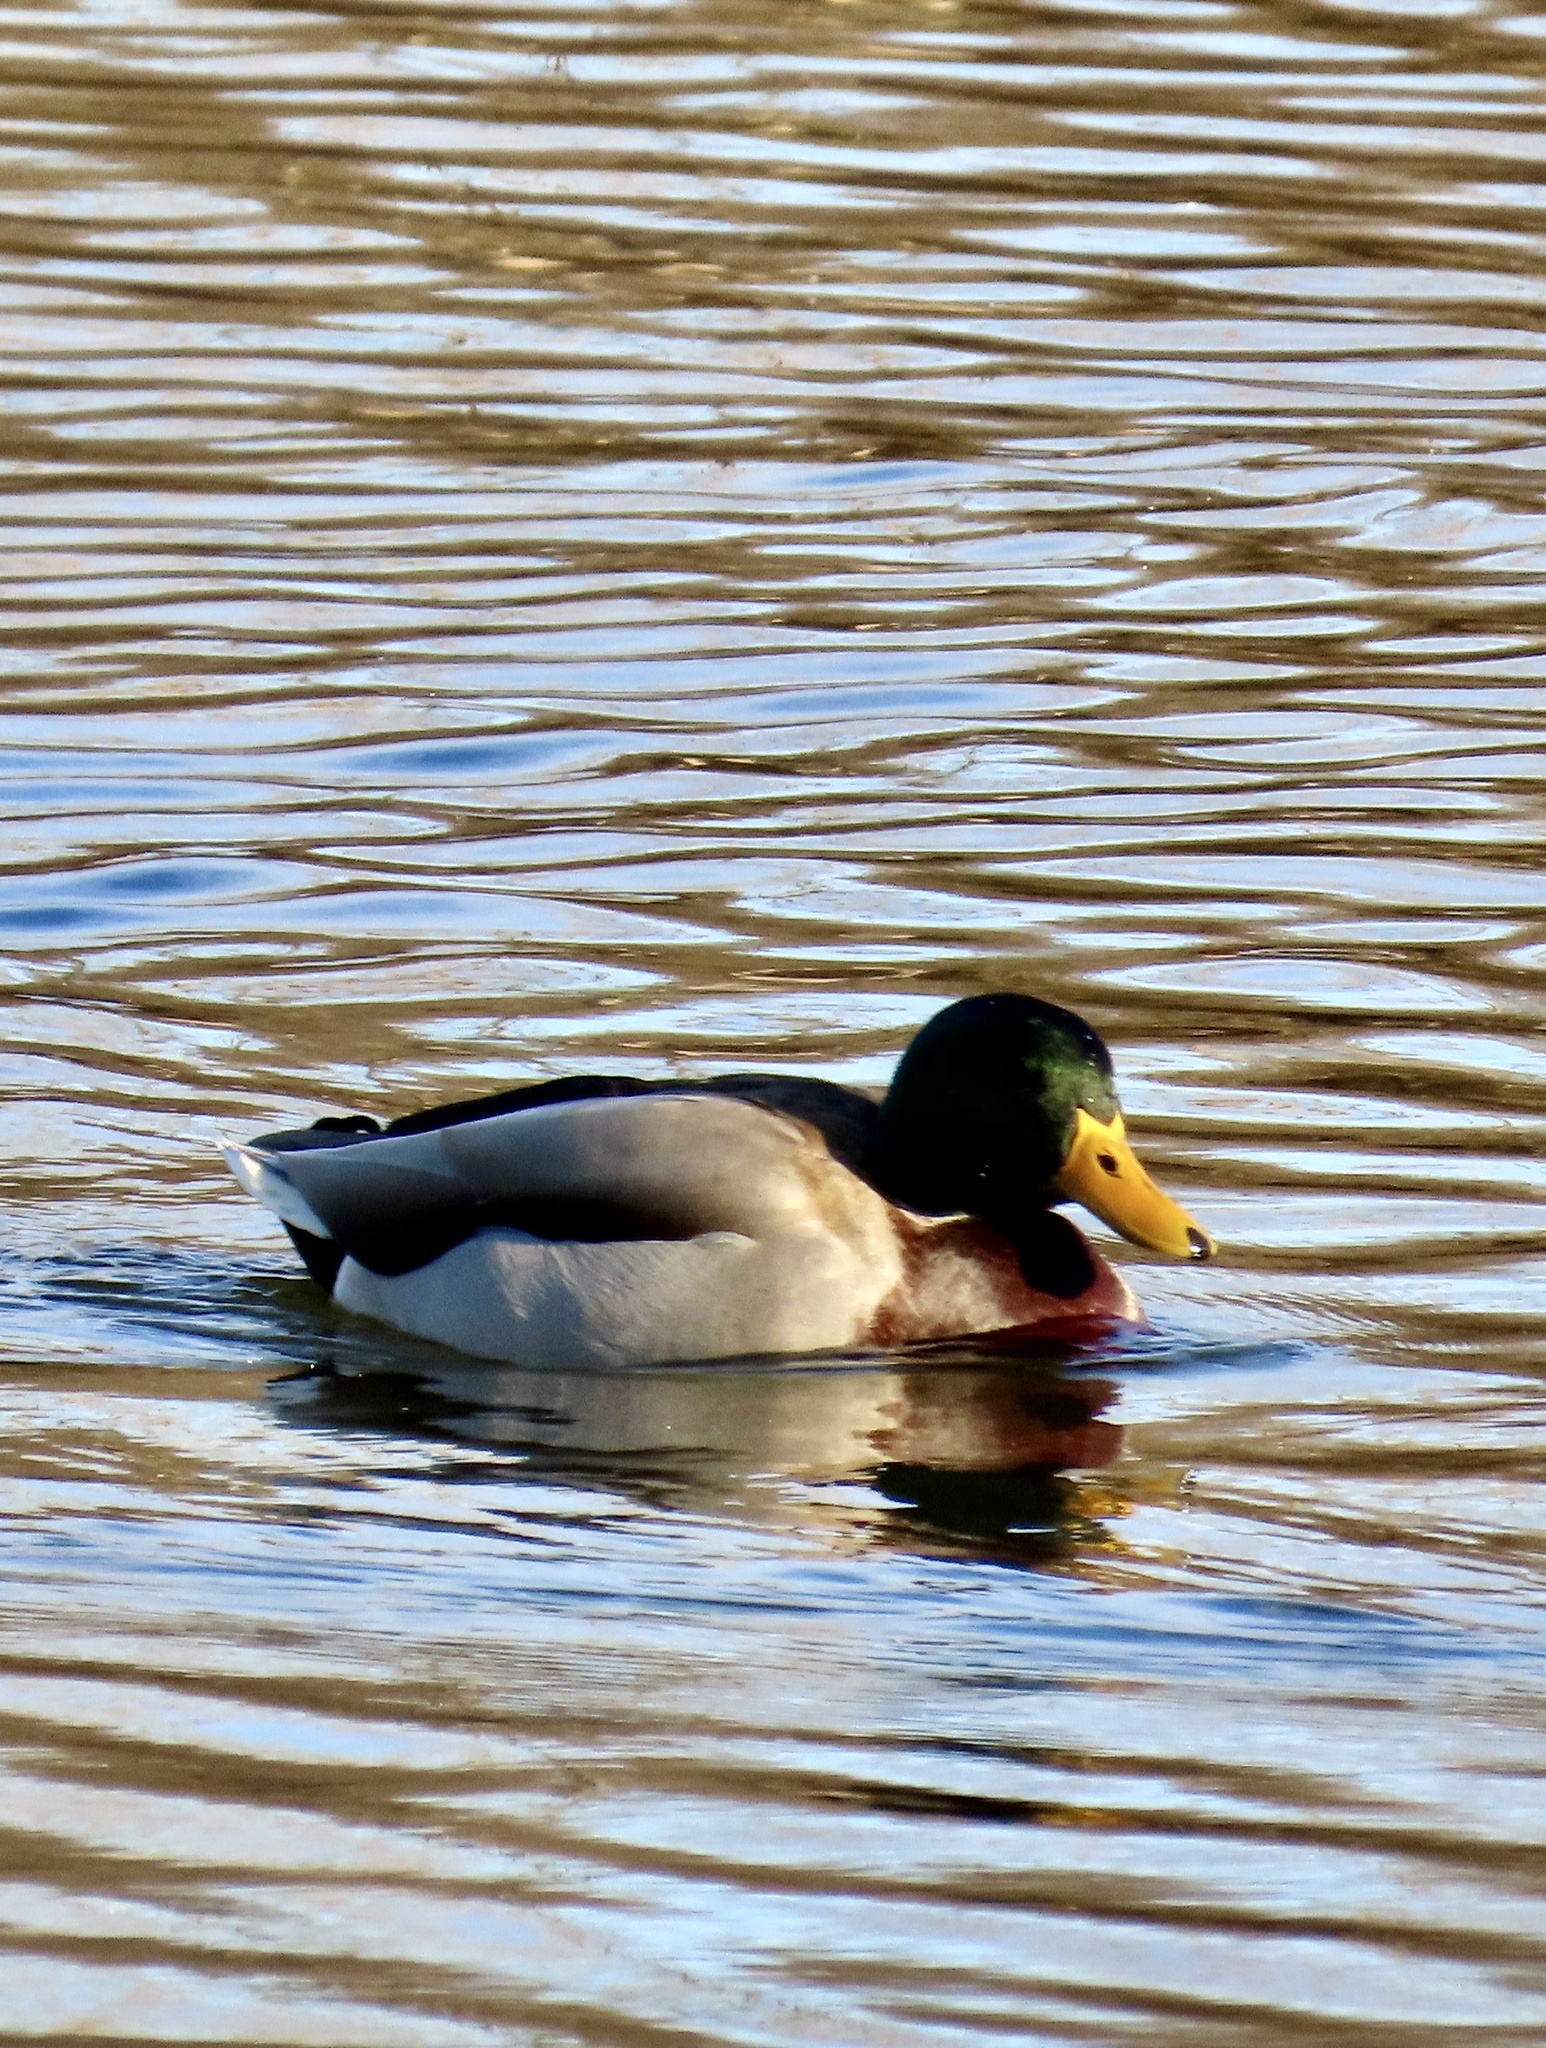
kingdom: Animalia
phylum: Chordata
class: Aves
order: Anseriformes
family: Anatidae
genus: Anas
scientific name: Anas platyrhynchos
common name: Mallard
